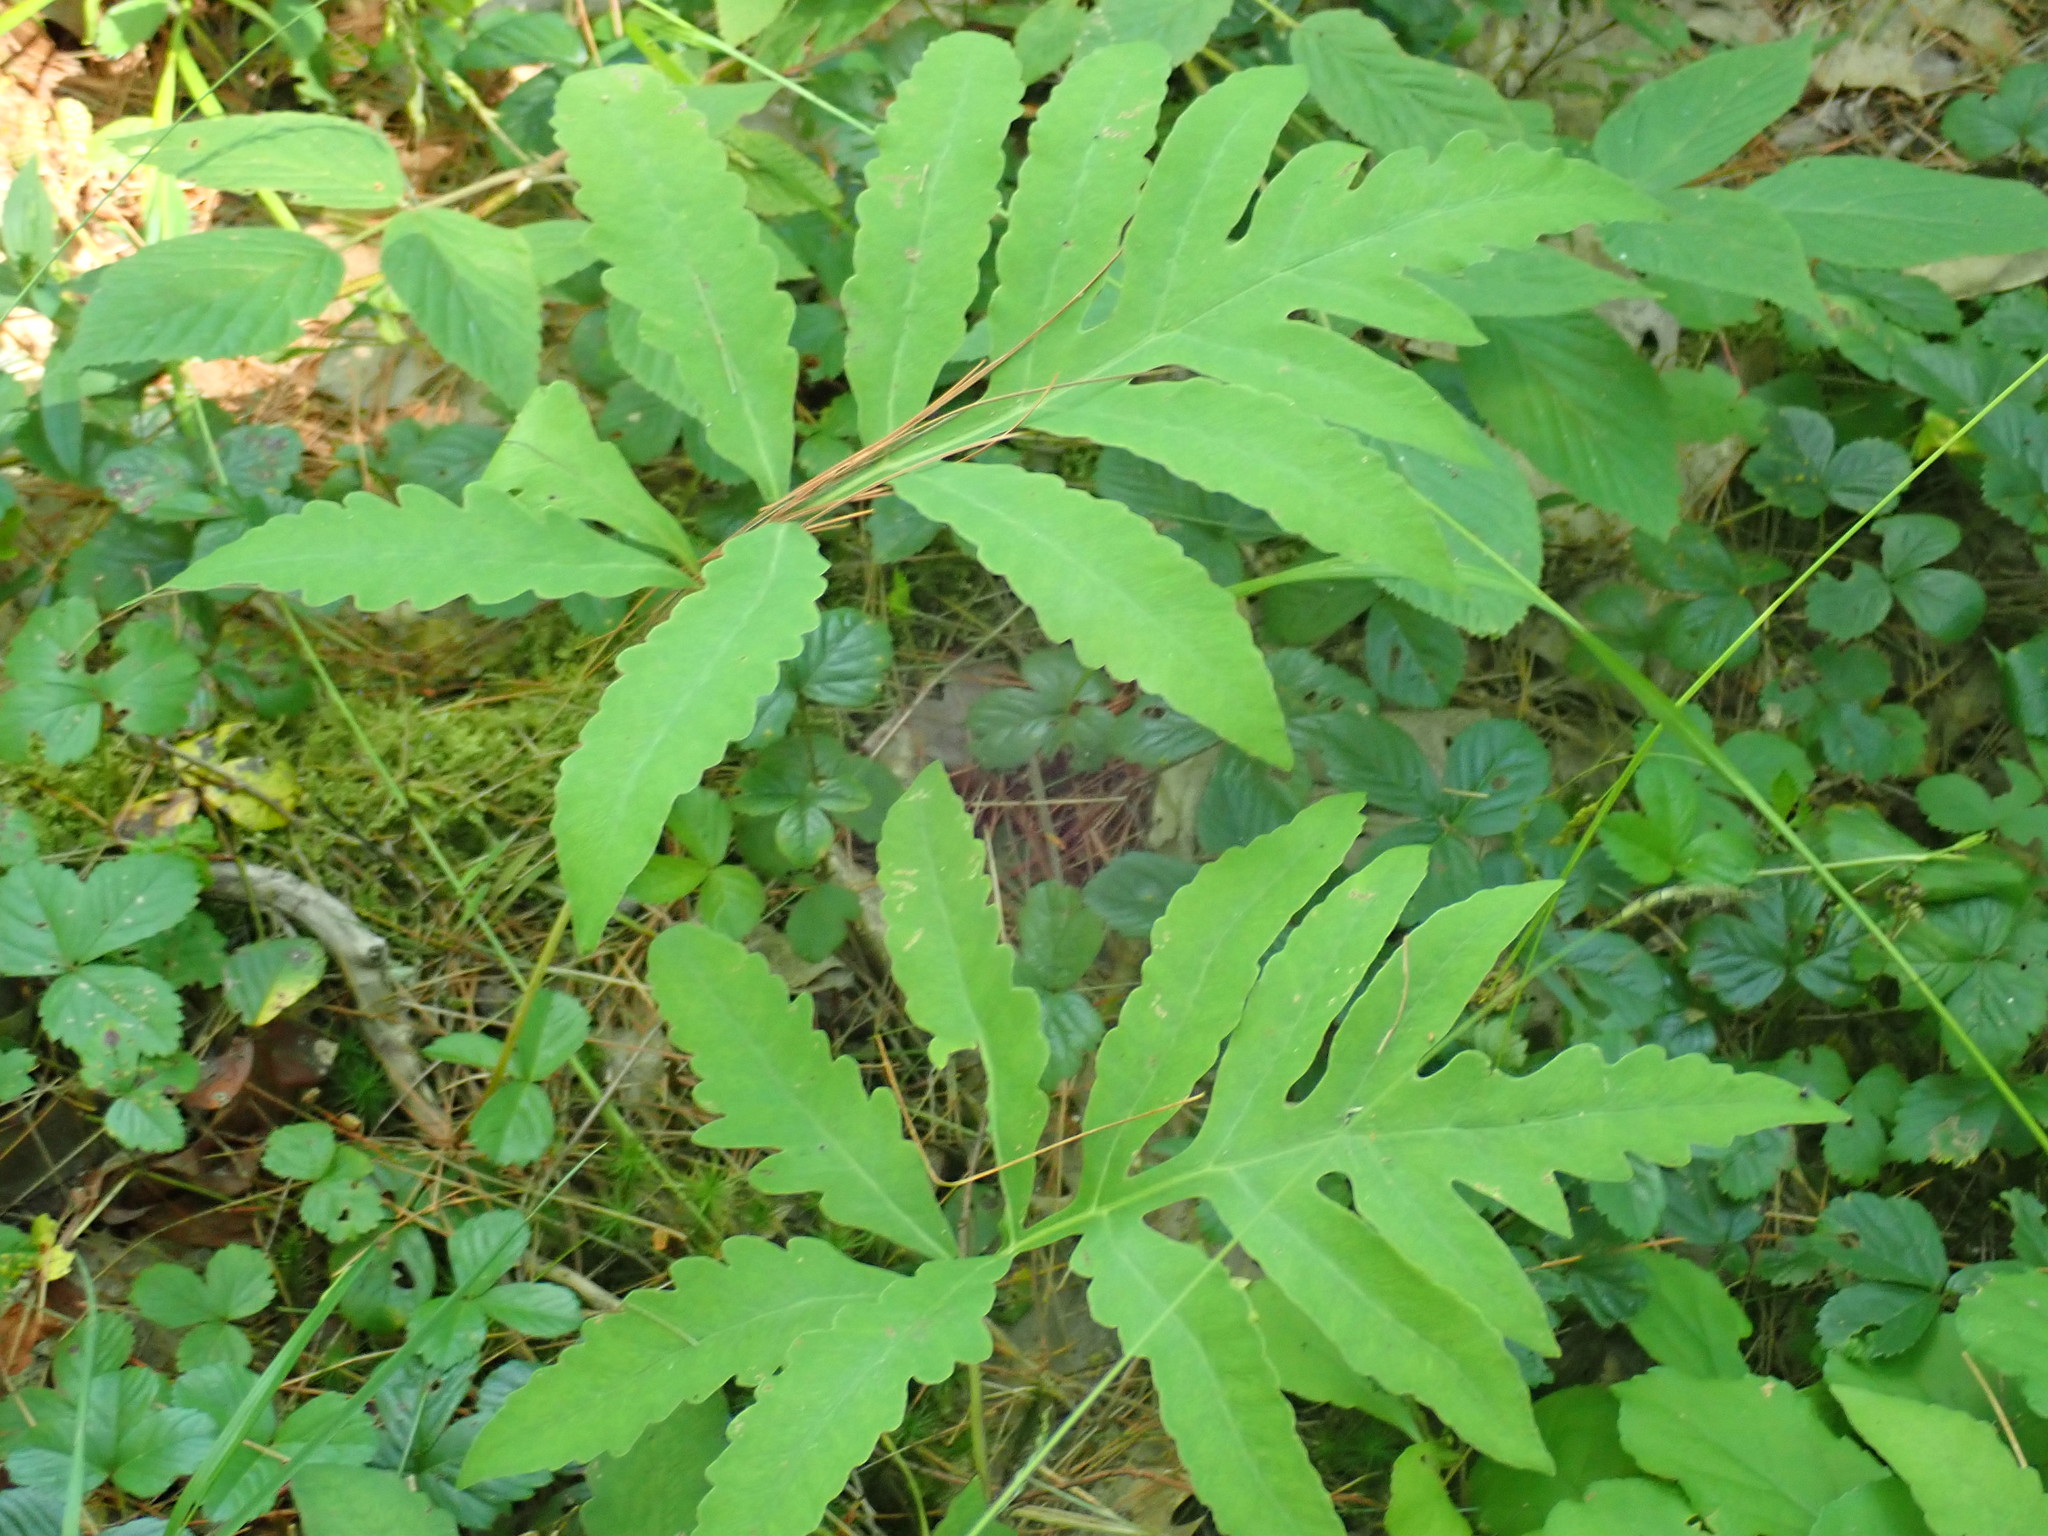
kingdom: Plantae
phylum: Tracheophyta
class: Polypodiopsida
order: Polypodiales
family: Onocleaceae
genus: Onoclea
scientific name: Onoclea sensibilis
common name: Sensitive fern
